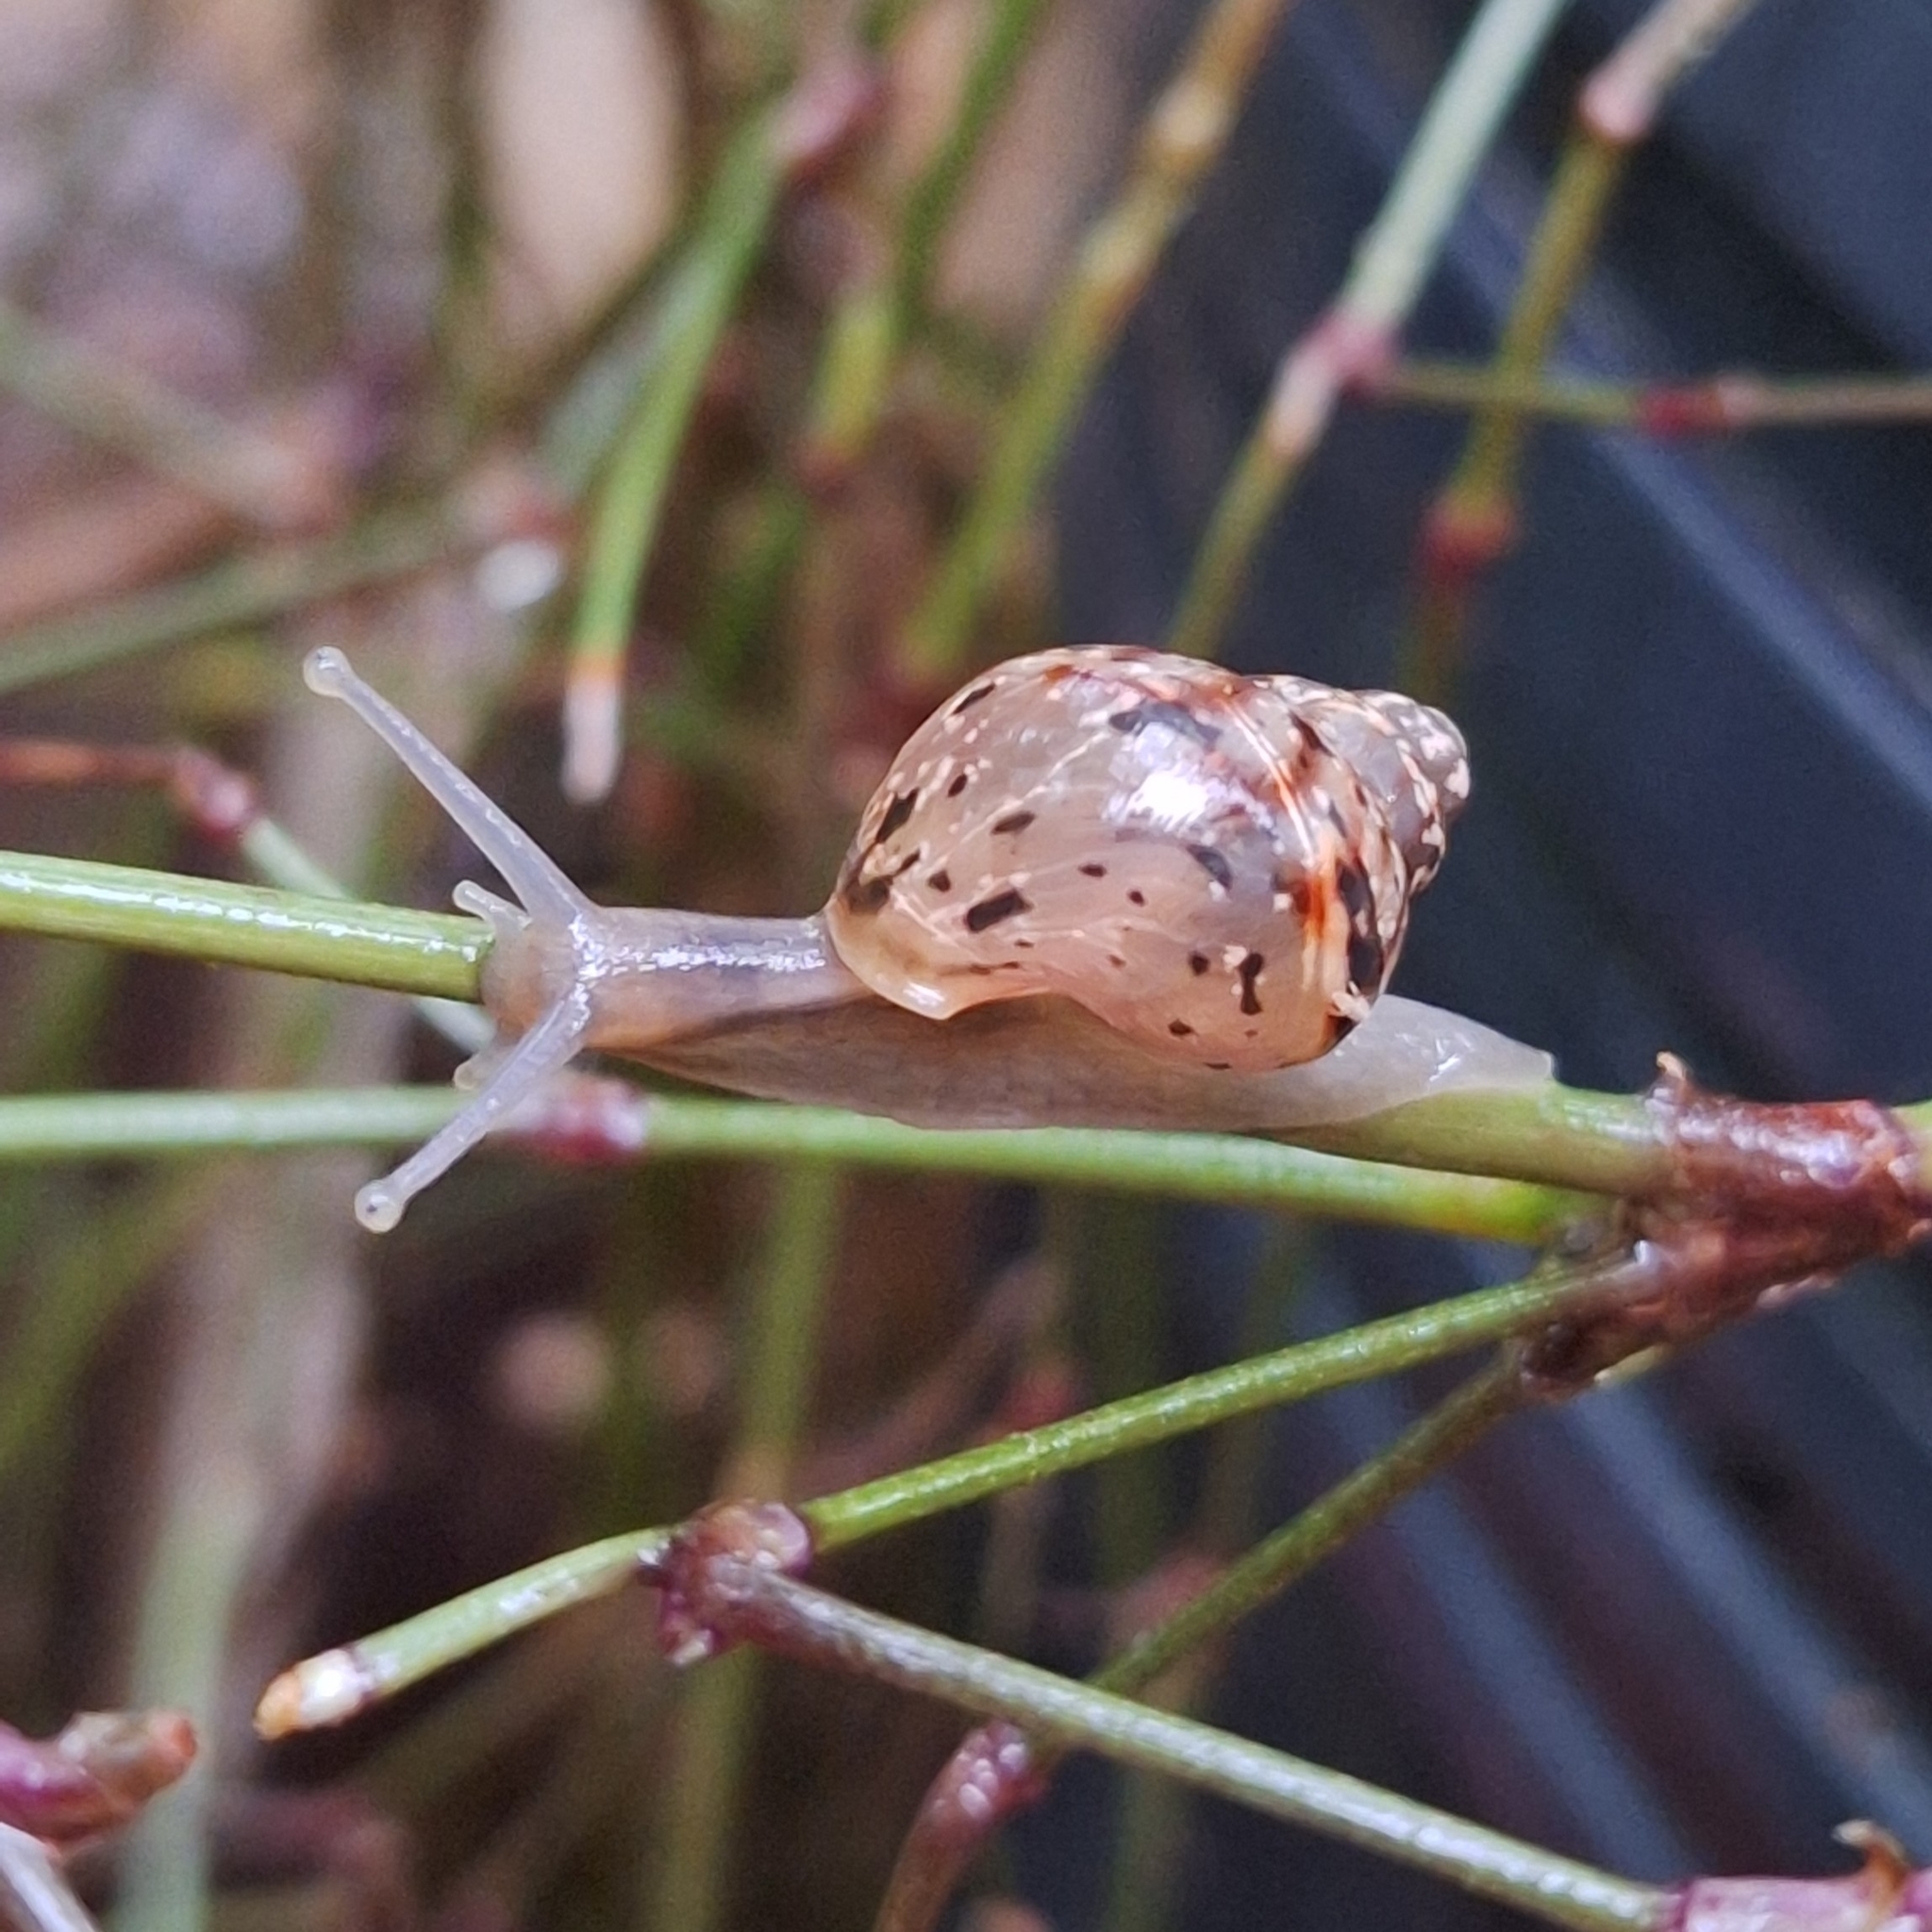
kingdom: Animalia
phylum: Mollusca
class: Gastropoda
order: Stylommatophora
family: Achatinidae
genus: Lissachatina
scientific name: Lissachatina fulica
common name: Giant african snail
